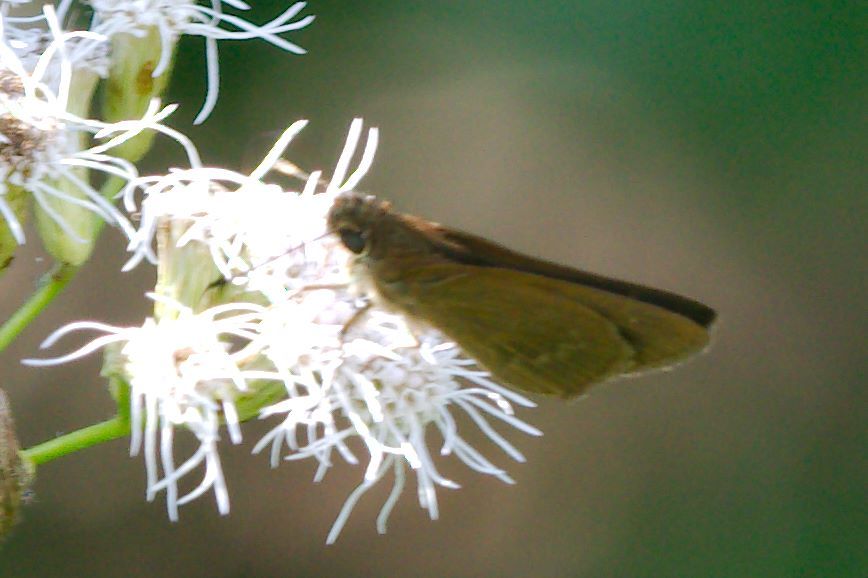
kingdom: Animalia
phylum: Arthropoda
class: Insecta
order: Lepidoptera
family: Hesperiidae
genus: Cymaenes
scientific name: Cymaenes tripunctus
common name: Dingy dotted skipper
